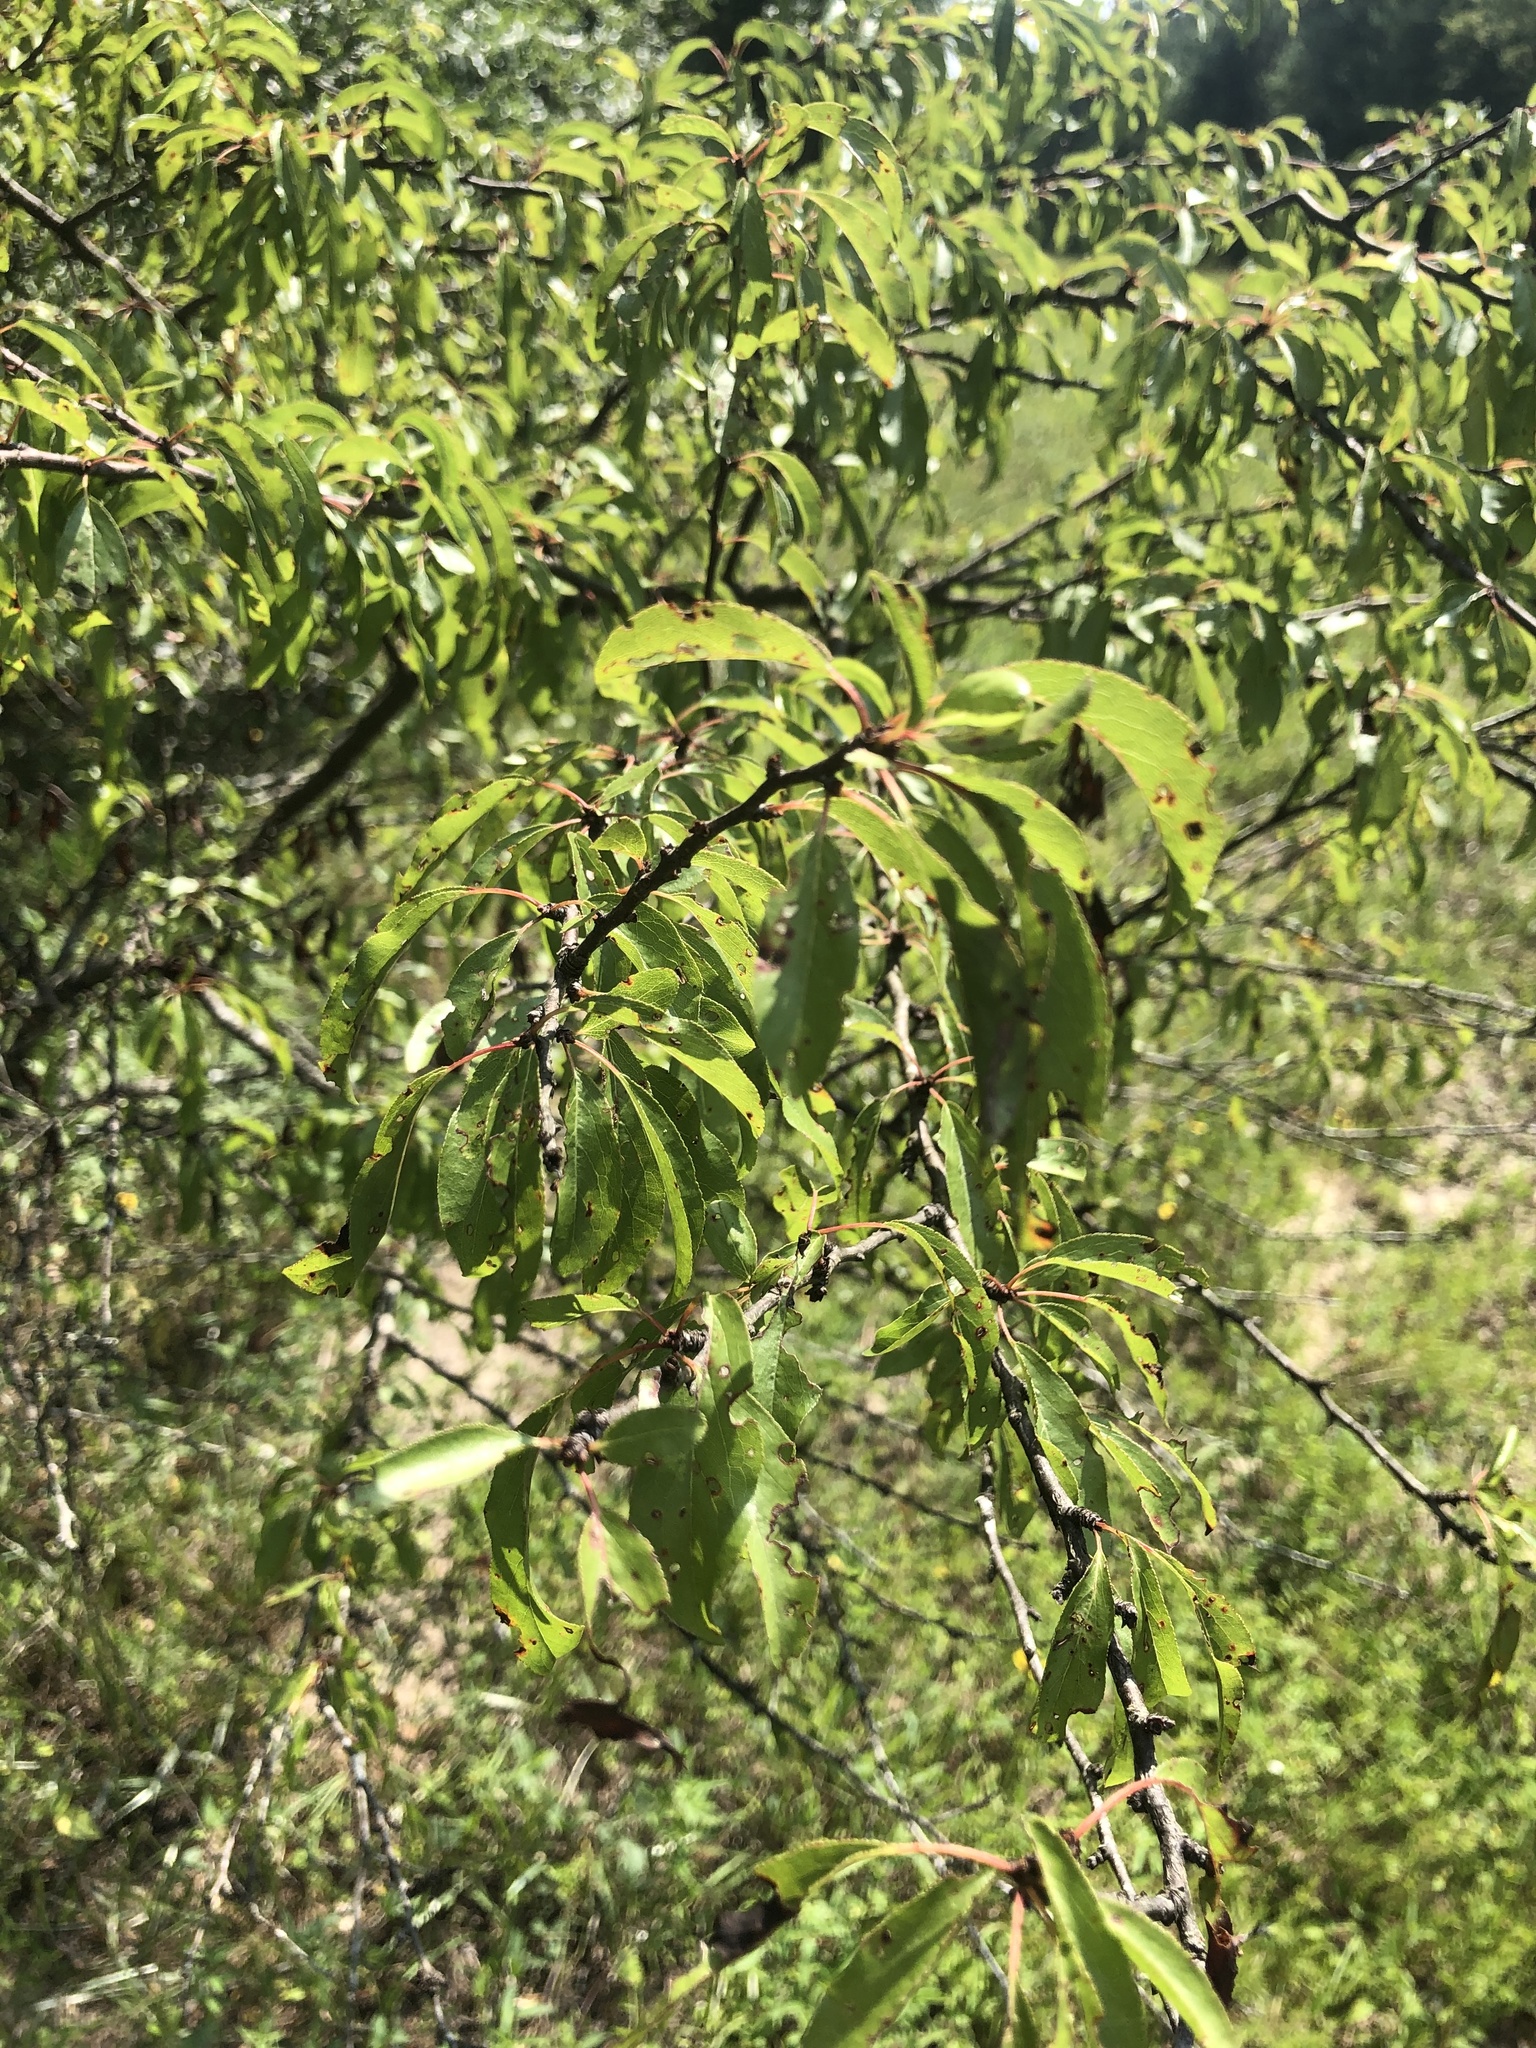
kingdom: Plantae
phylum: Tracheophyta
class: Magnoliopsida
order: Rosales
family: Rosaceae
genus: Prunus
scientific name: Prunus angustifolia
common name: Cherokee plum
